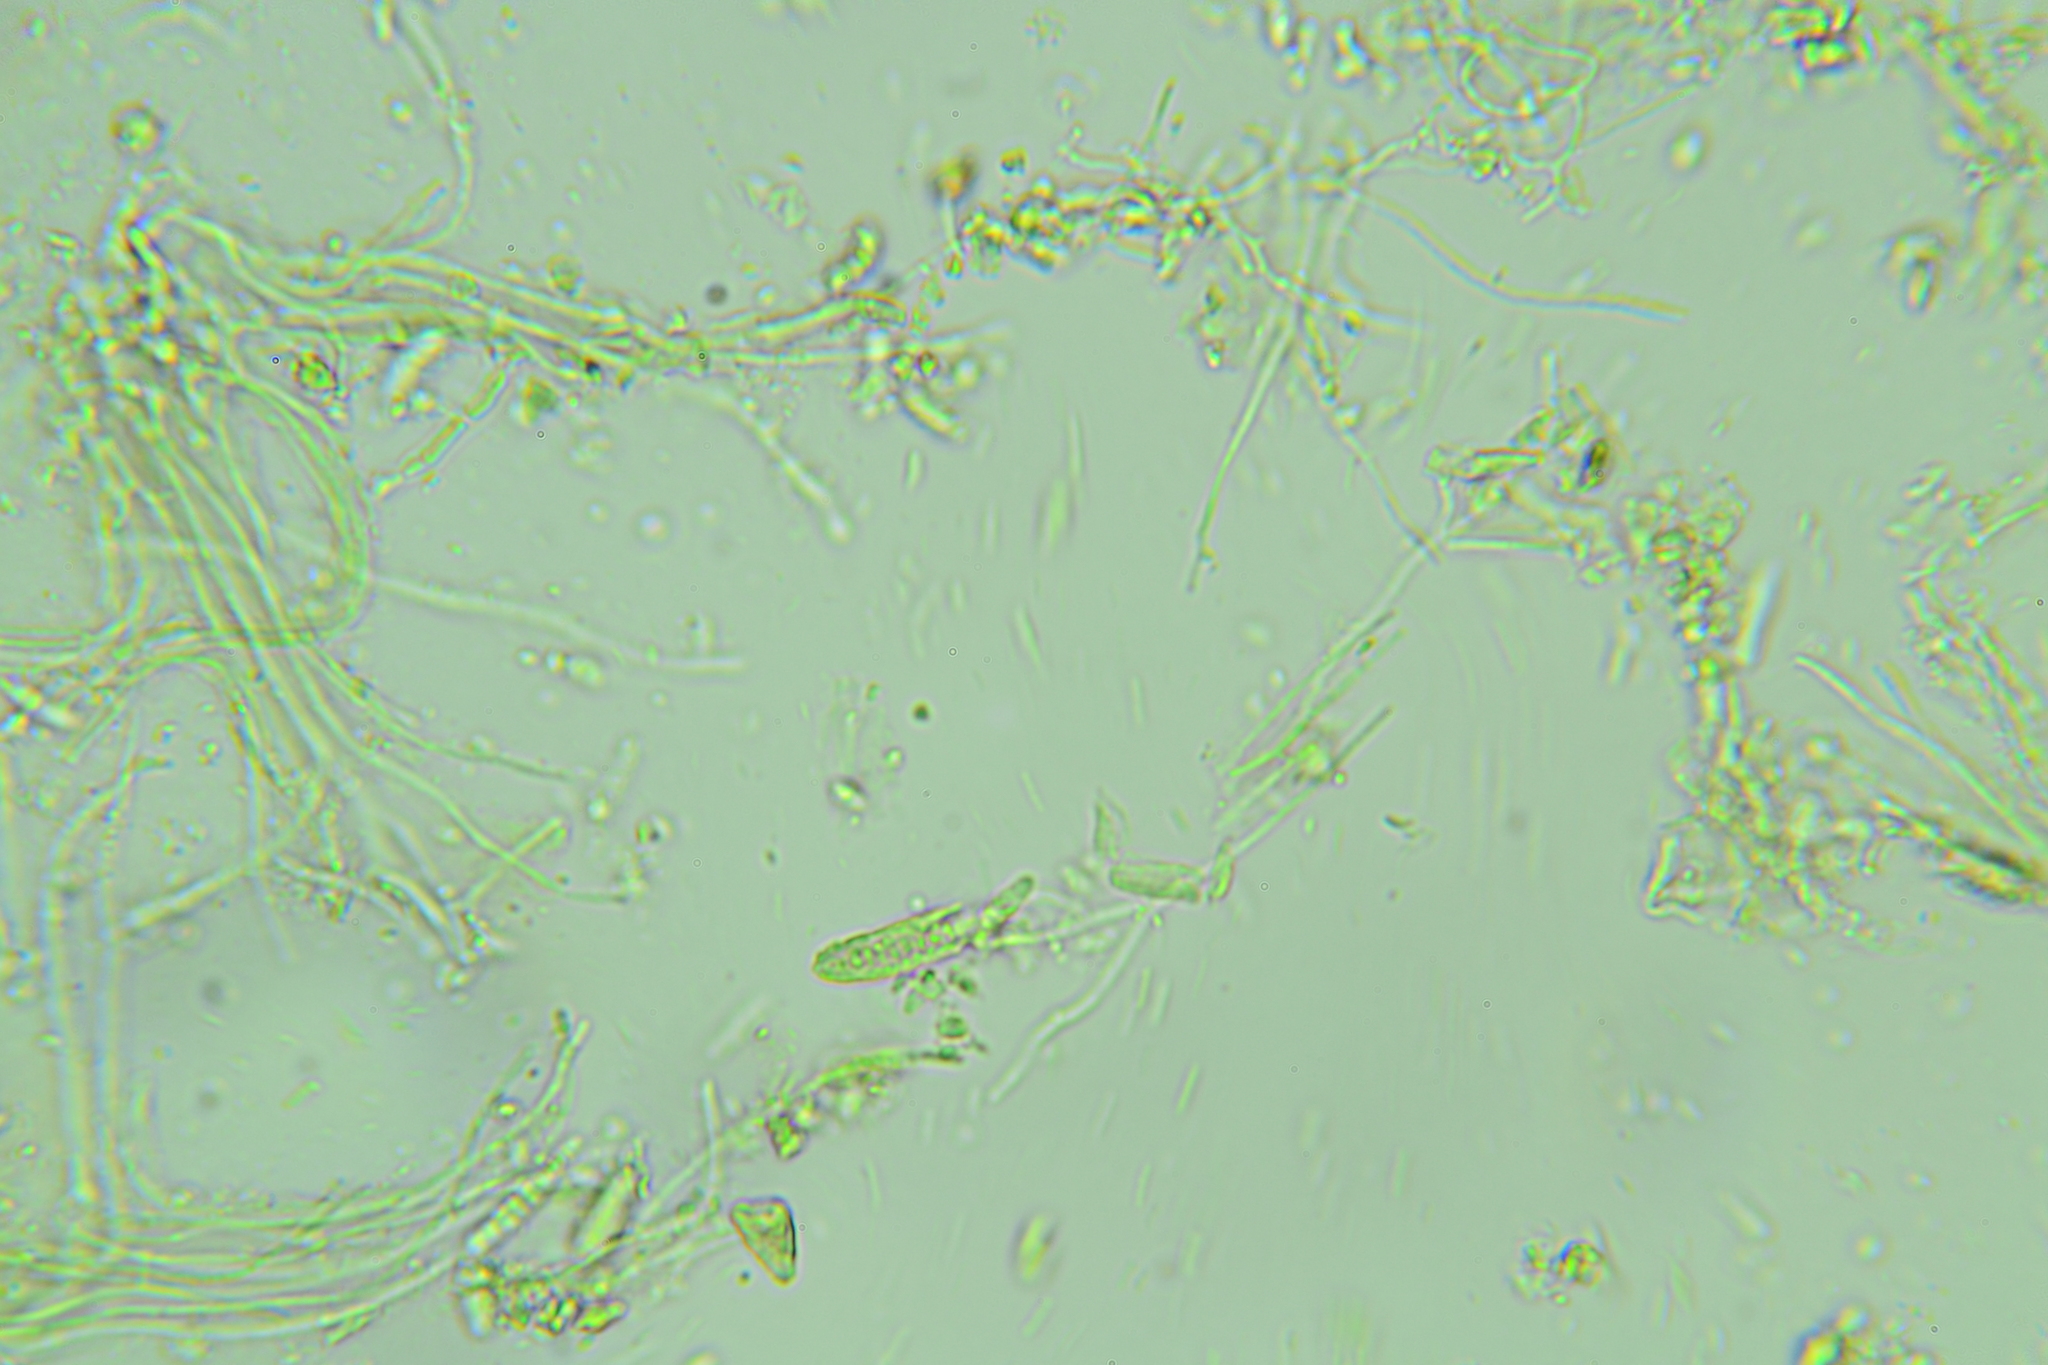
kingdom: Fungi
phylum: Ascomycota
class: Leotiomycetes
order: Leotiales
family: Tympanidaceae
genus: Claussenomyces
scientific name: Claussenomyces olivaceus
